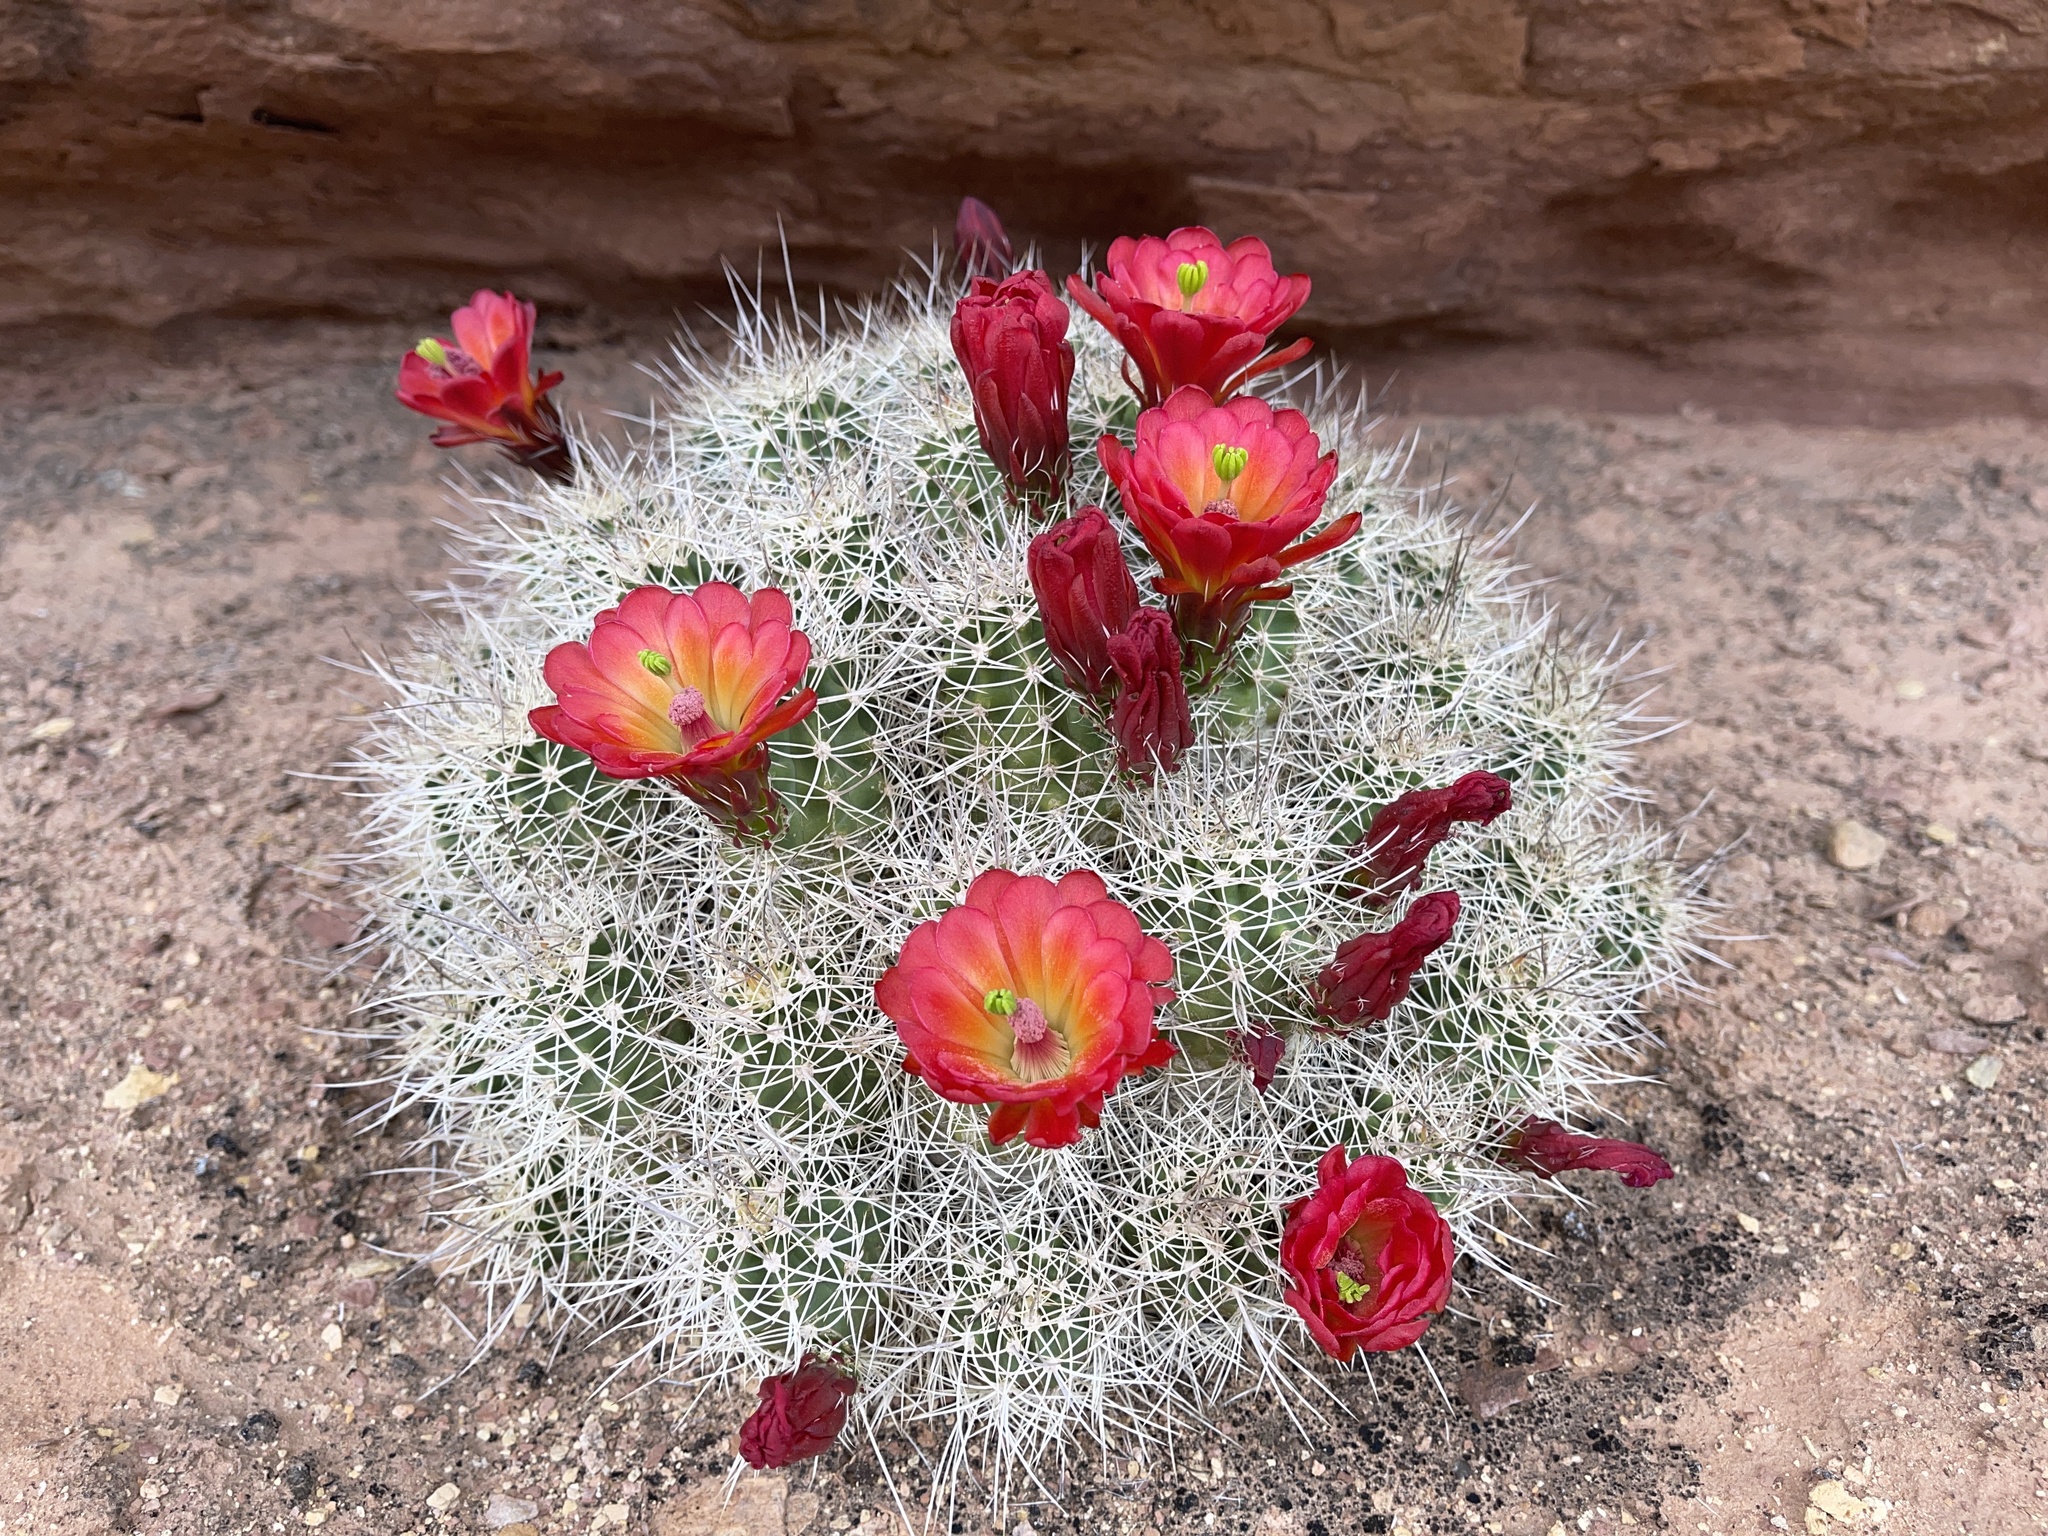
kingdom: Plantae
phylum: Tracheophyta
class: Magnoliopsida
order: Caryophyllales
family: Cactaceae
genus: Echinocereus
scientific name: Echinocereus triglochidiatus
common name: Claretcup hedgehog
